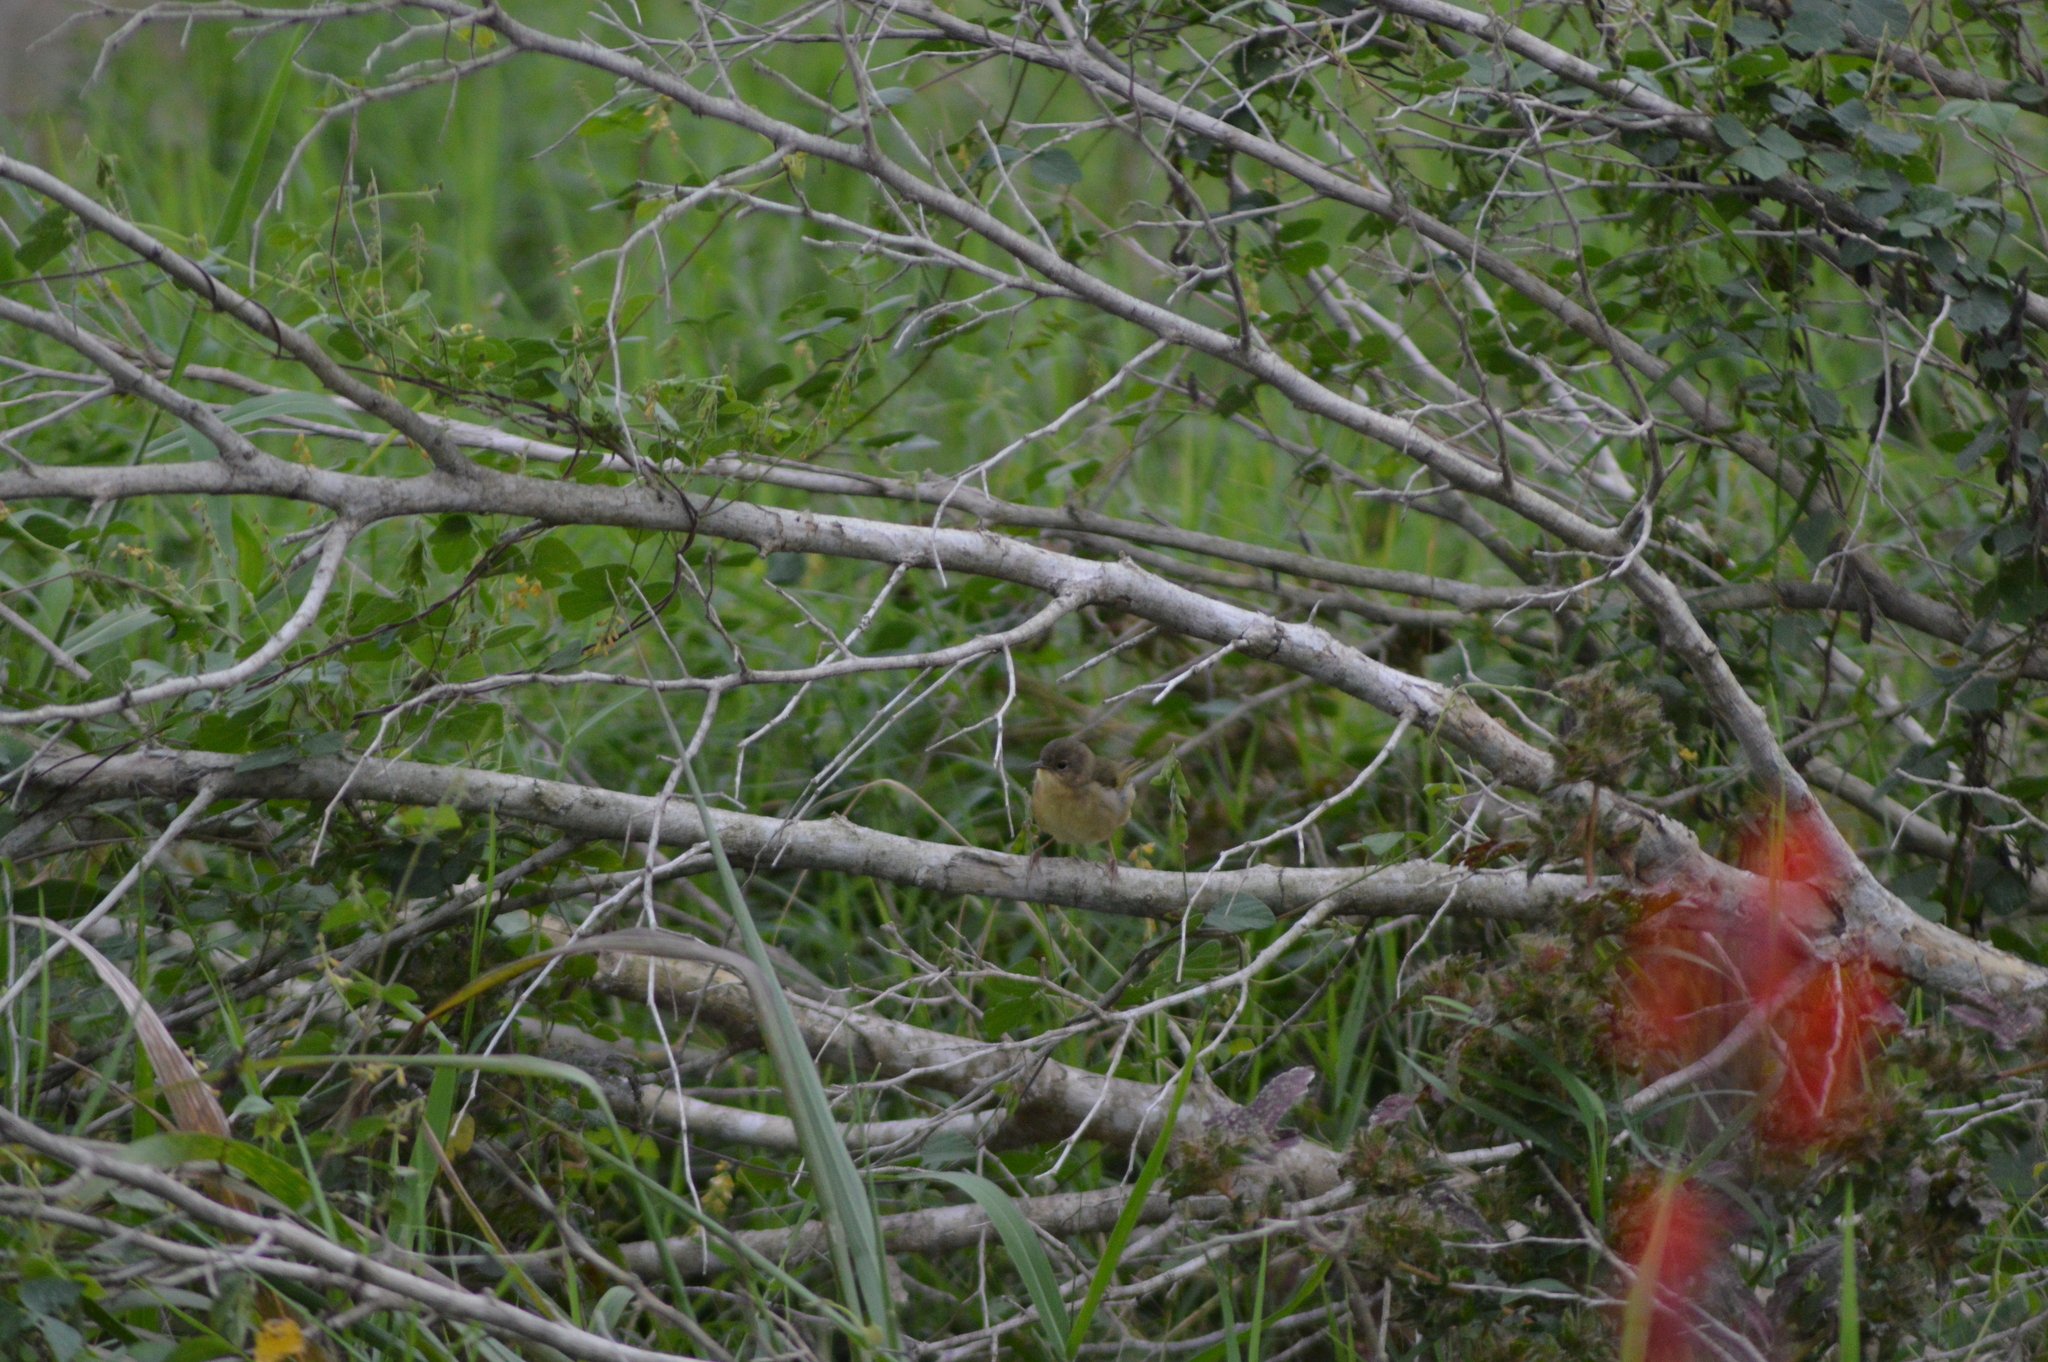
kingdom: Animalia
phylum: Chordata
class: Aves
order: Passeriformes
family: Parulidae
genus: Geothlypis
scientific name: Geothlypis trichas
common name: Common yellowthroat
